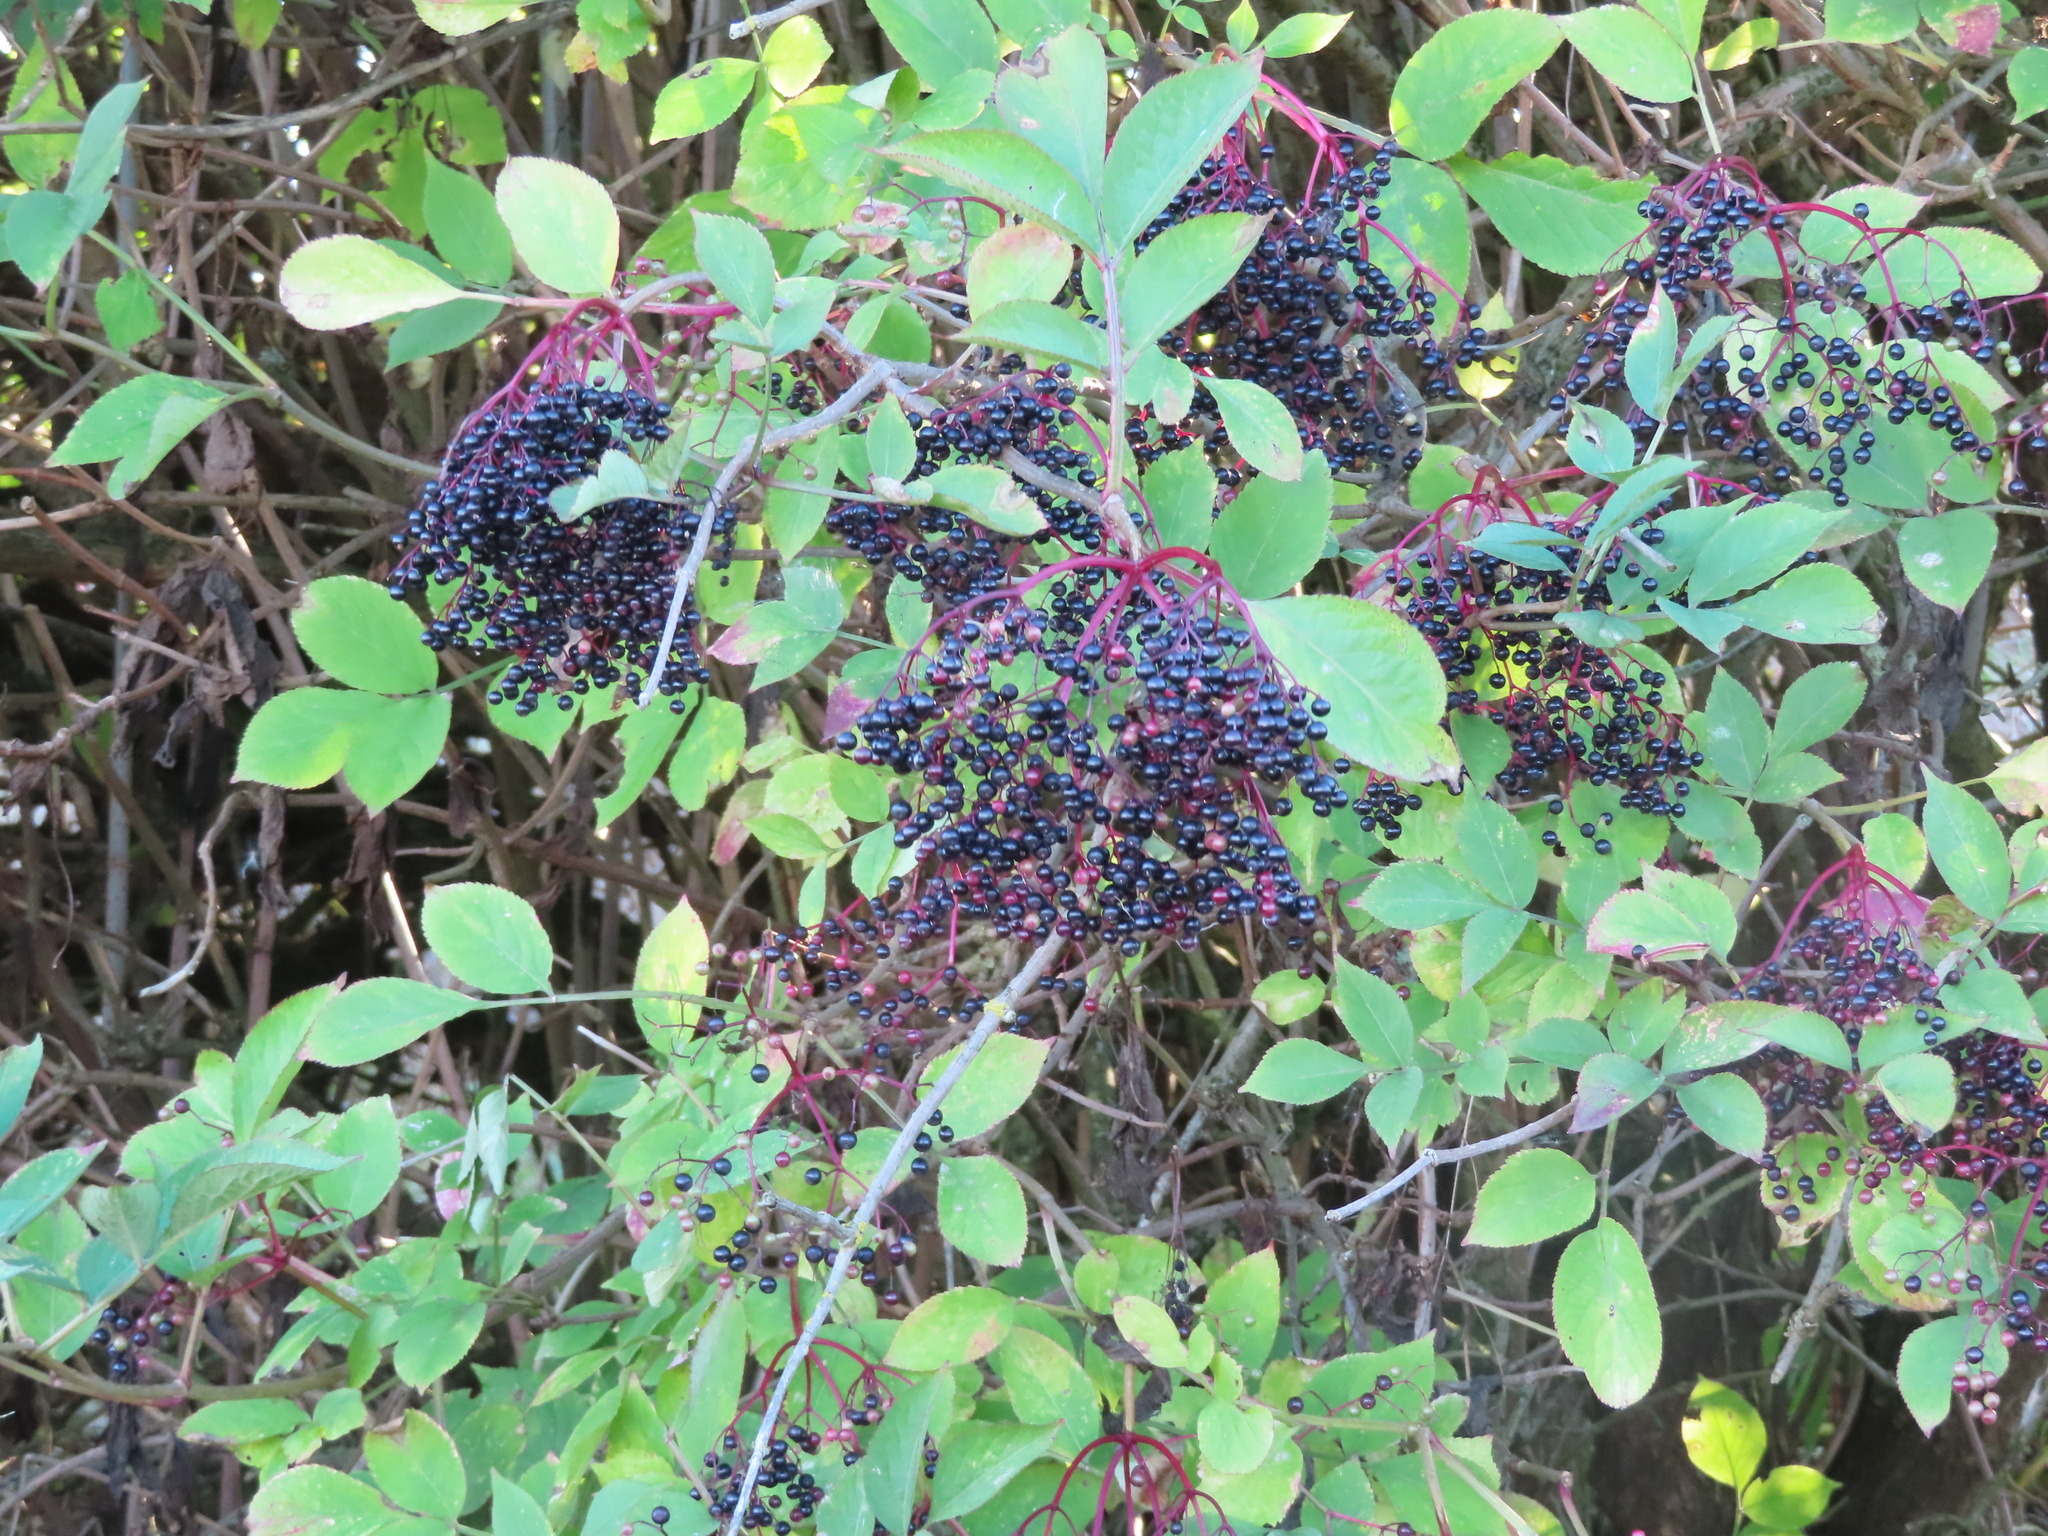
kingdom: Plantae
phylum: Tracheophyta
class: Magnoliopsida
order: Dipsacales
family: Viburnaceae
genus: Sambucus
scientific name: Sambucus nigra
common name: Elder
